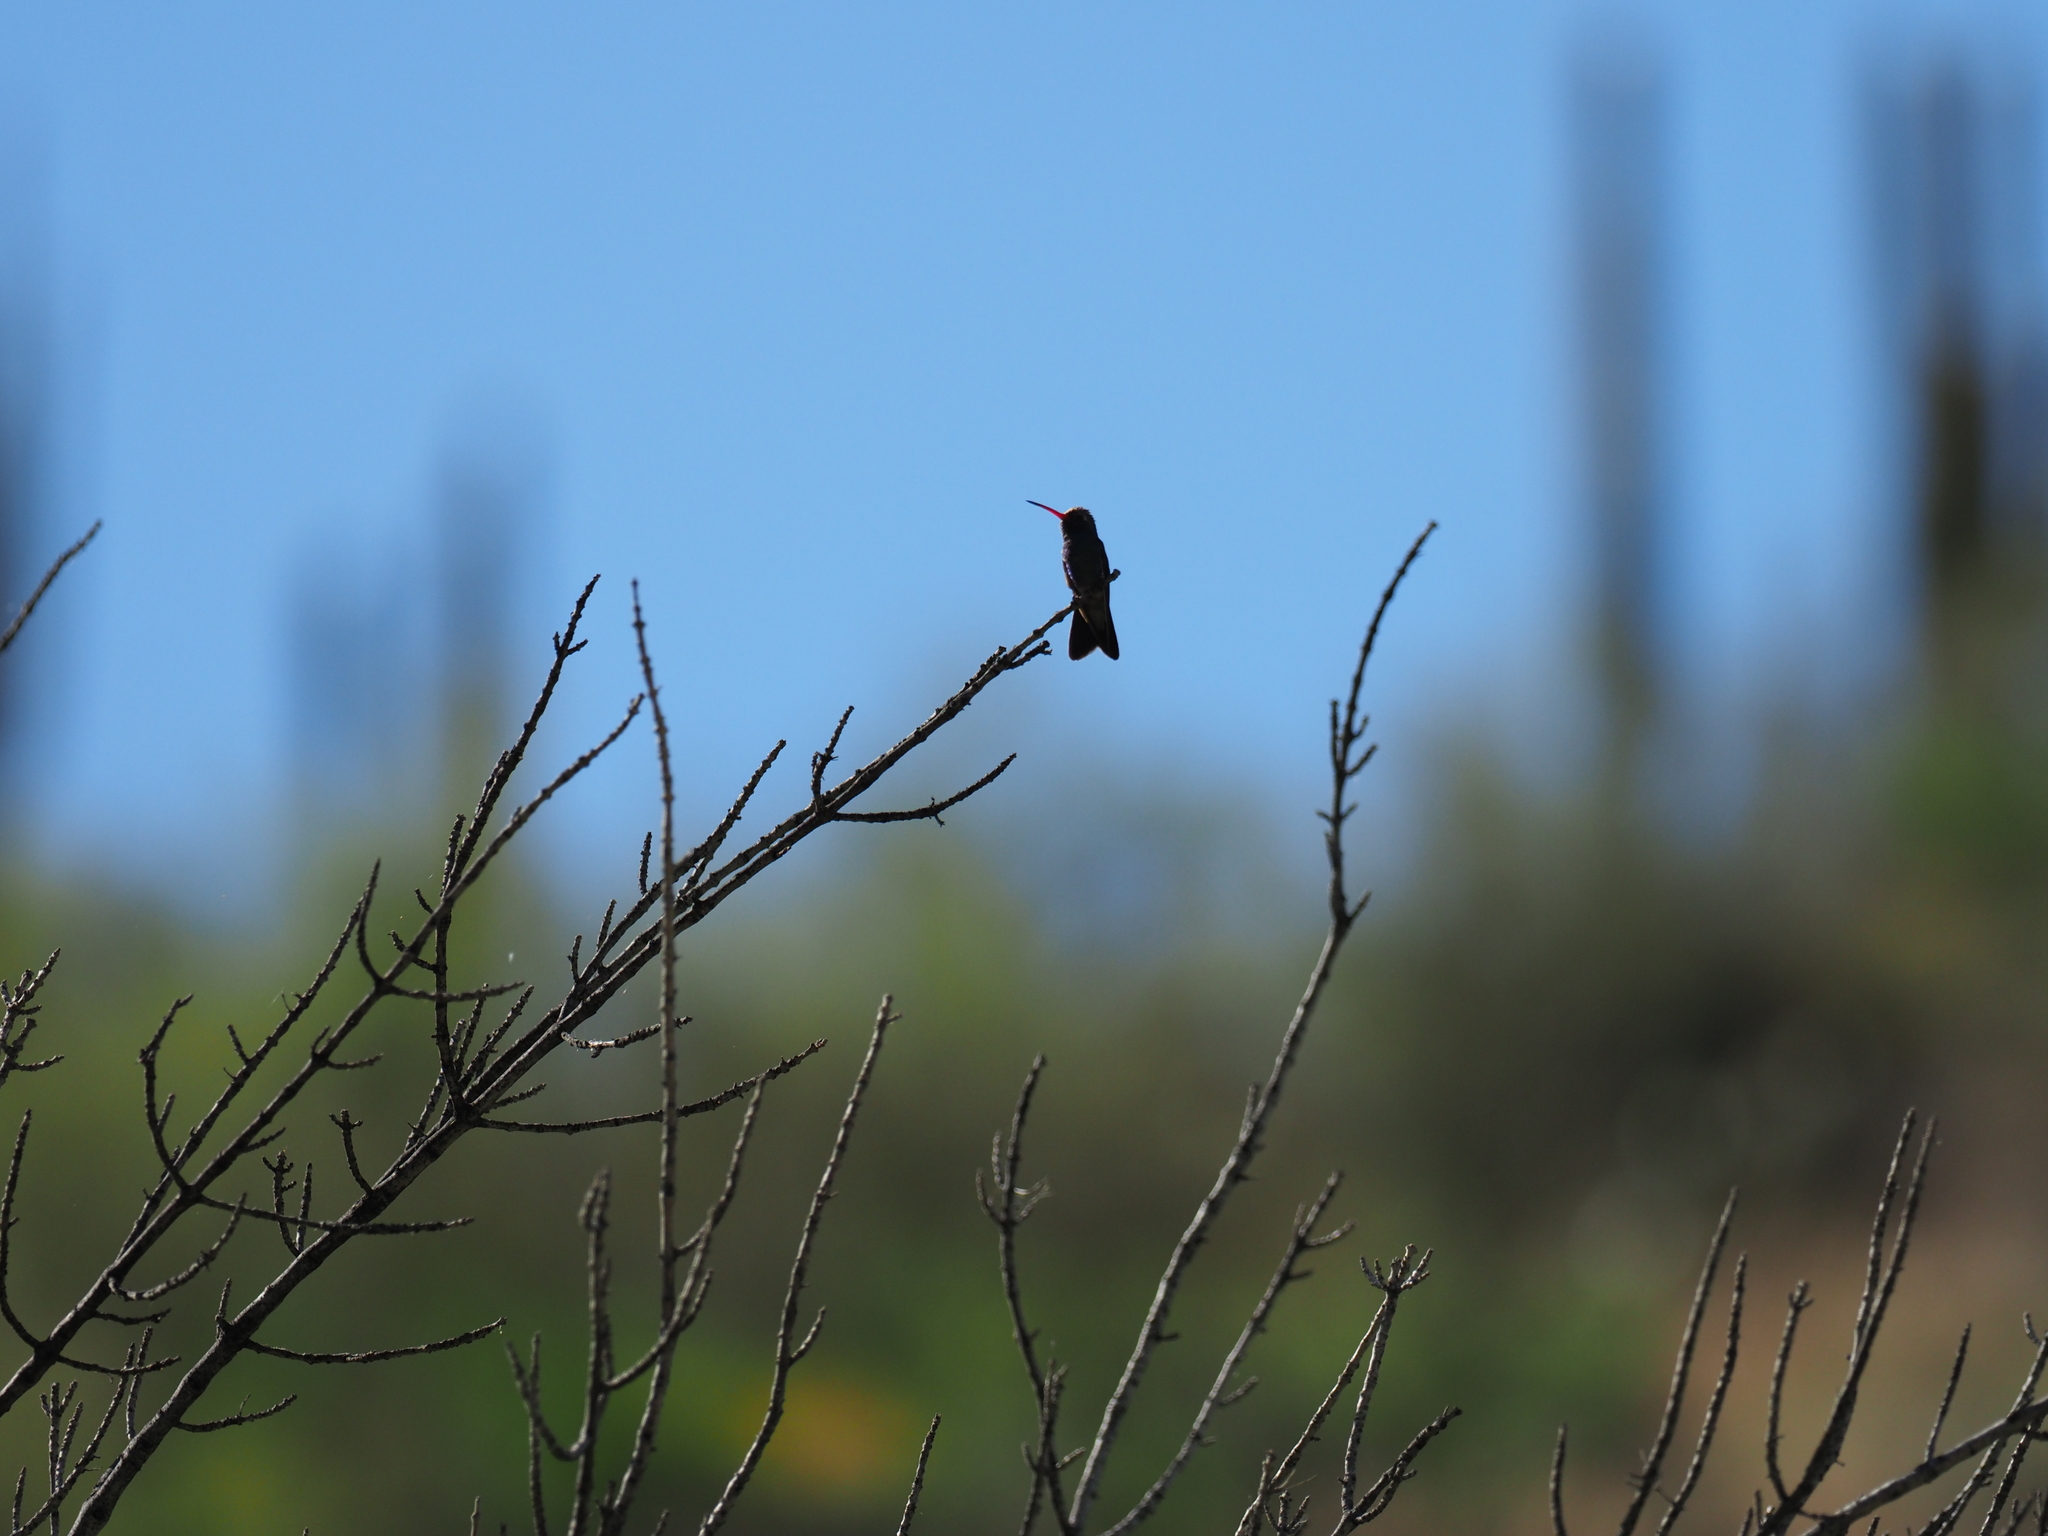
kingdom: Animalia
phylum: Chordata
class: Aves
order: Apodiformes
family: Trochilidae
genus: Cynanthus
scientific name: Cynanthus latirostris
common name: Broad-billed hummingbird
